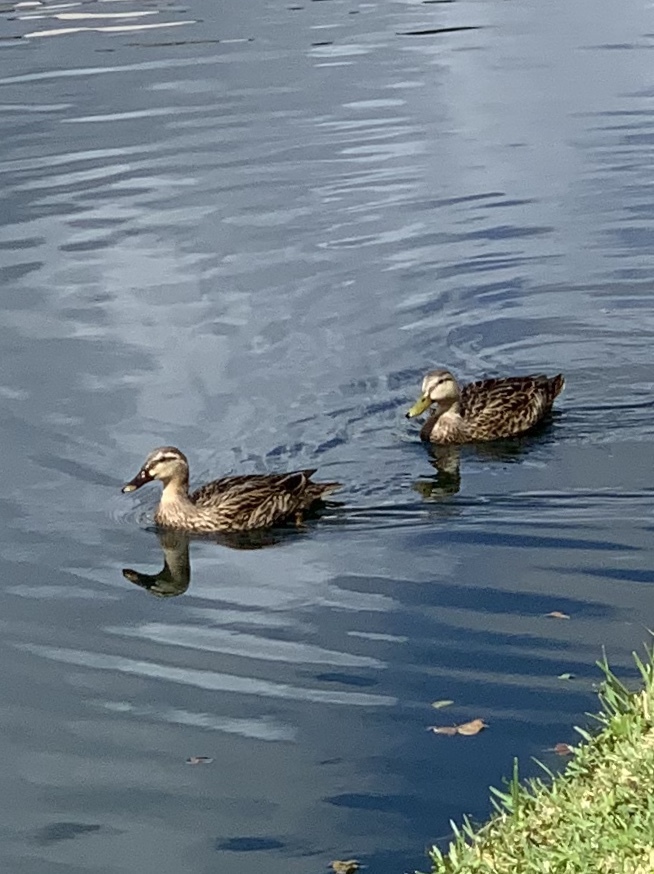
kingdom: Animalia
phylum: Chordata
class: Aves
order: Anseriformes
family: Anatidae
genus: Anas
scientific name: Anas fulvigula
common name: Mottled duck
